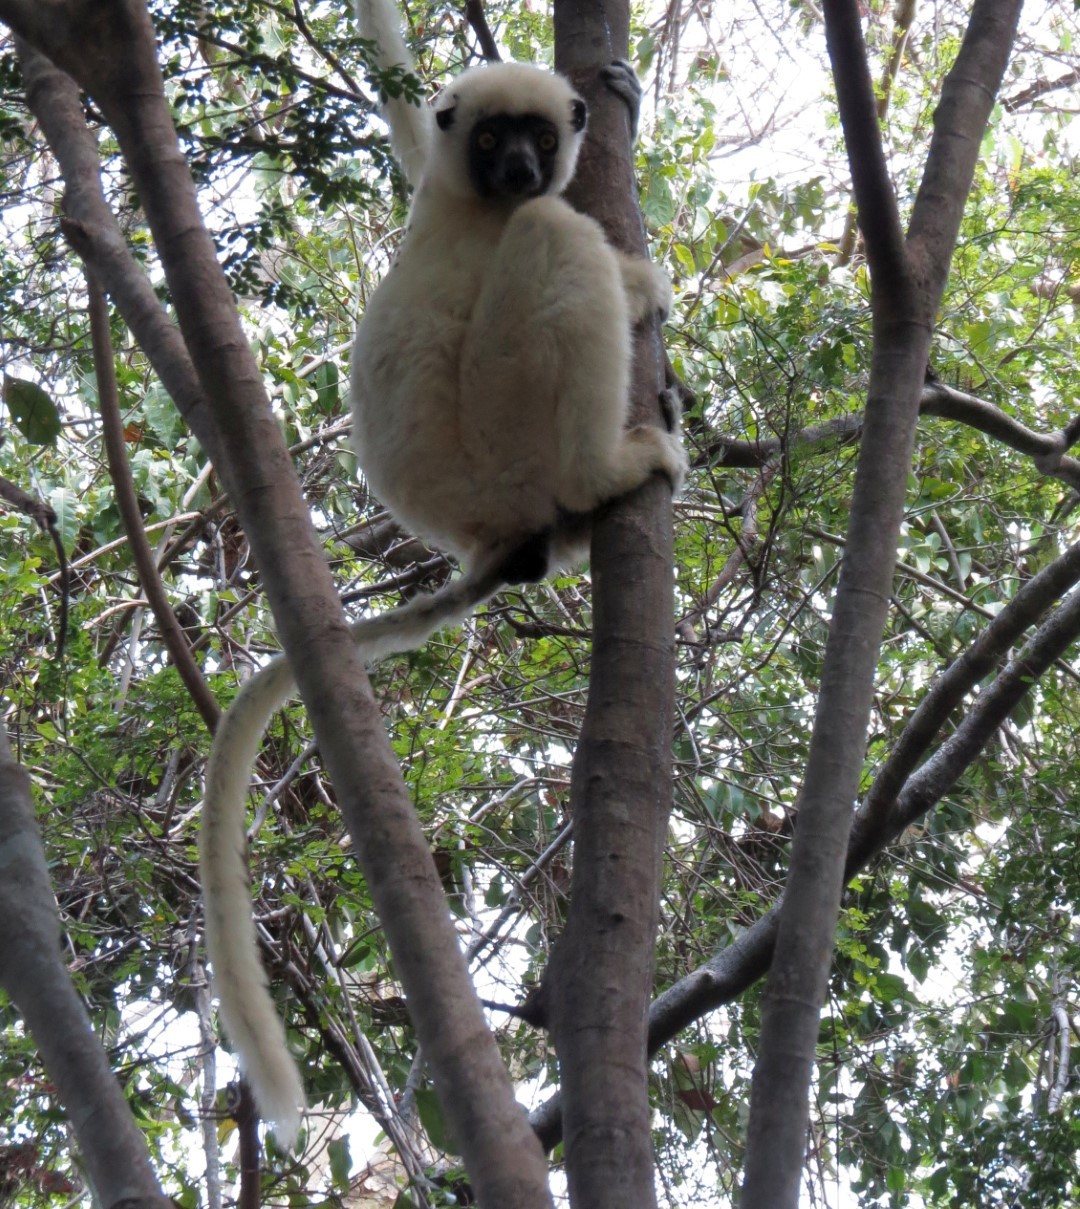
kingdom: Animalia
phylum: Chordata
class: Mammalia
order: Primates
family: Indriidae
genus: Propithecus
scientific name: Propithecus deckenii
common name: Decken's sifaka
